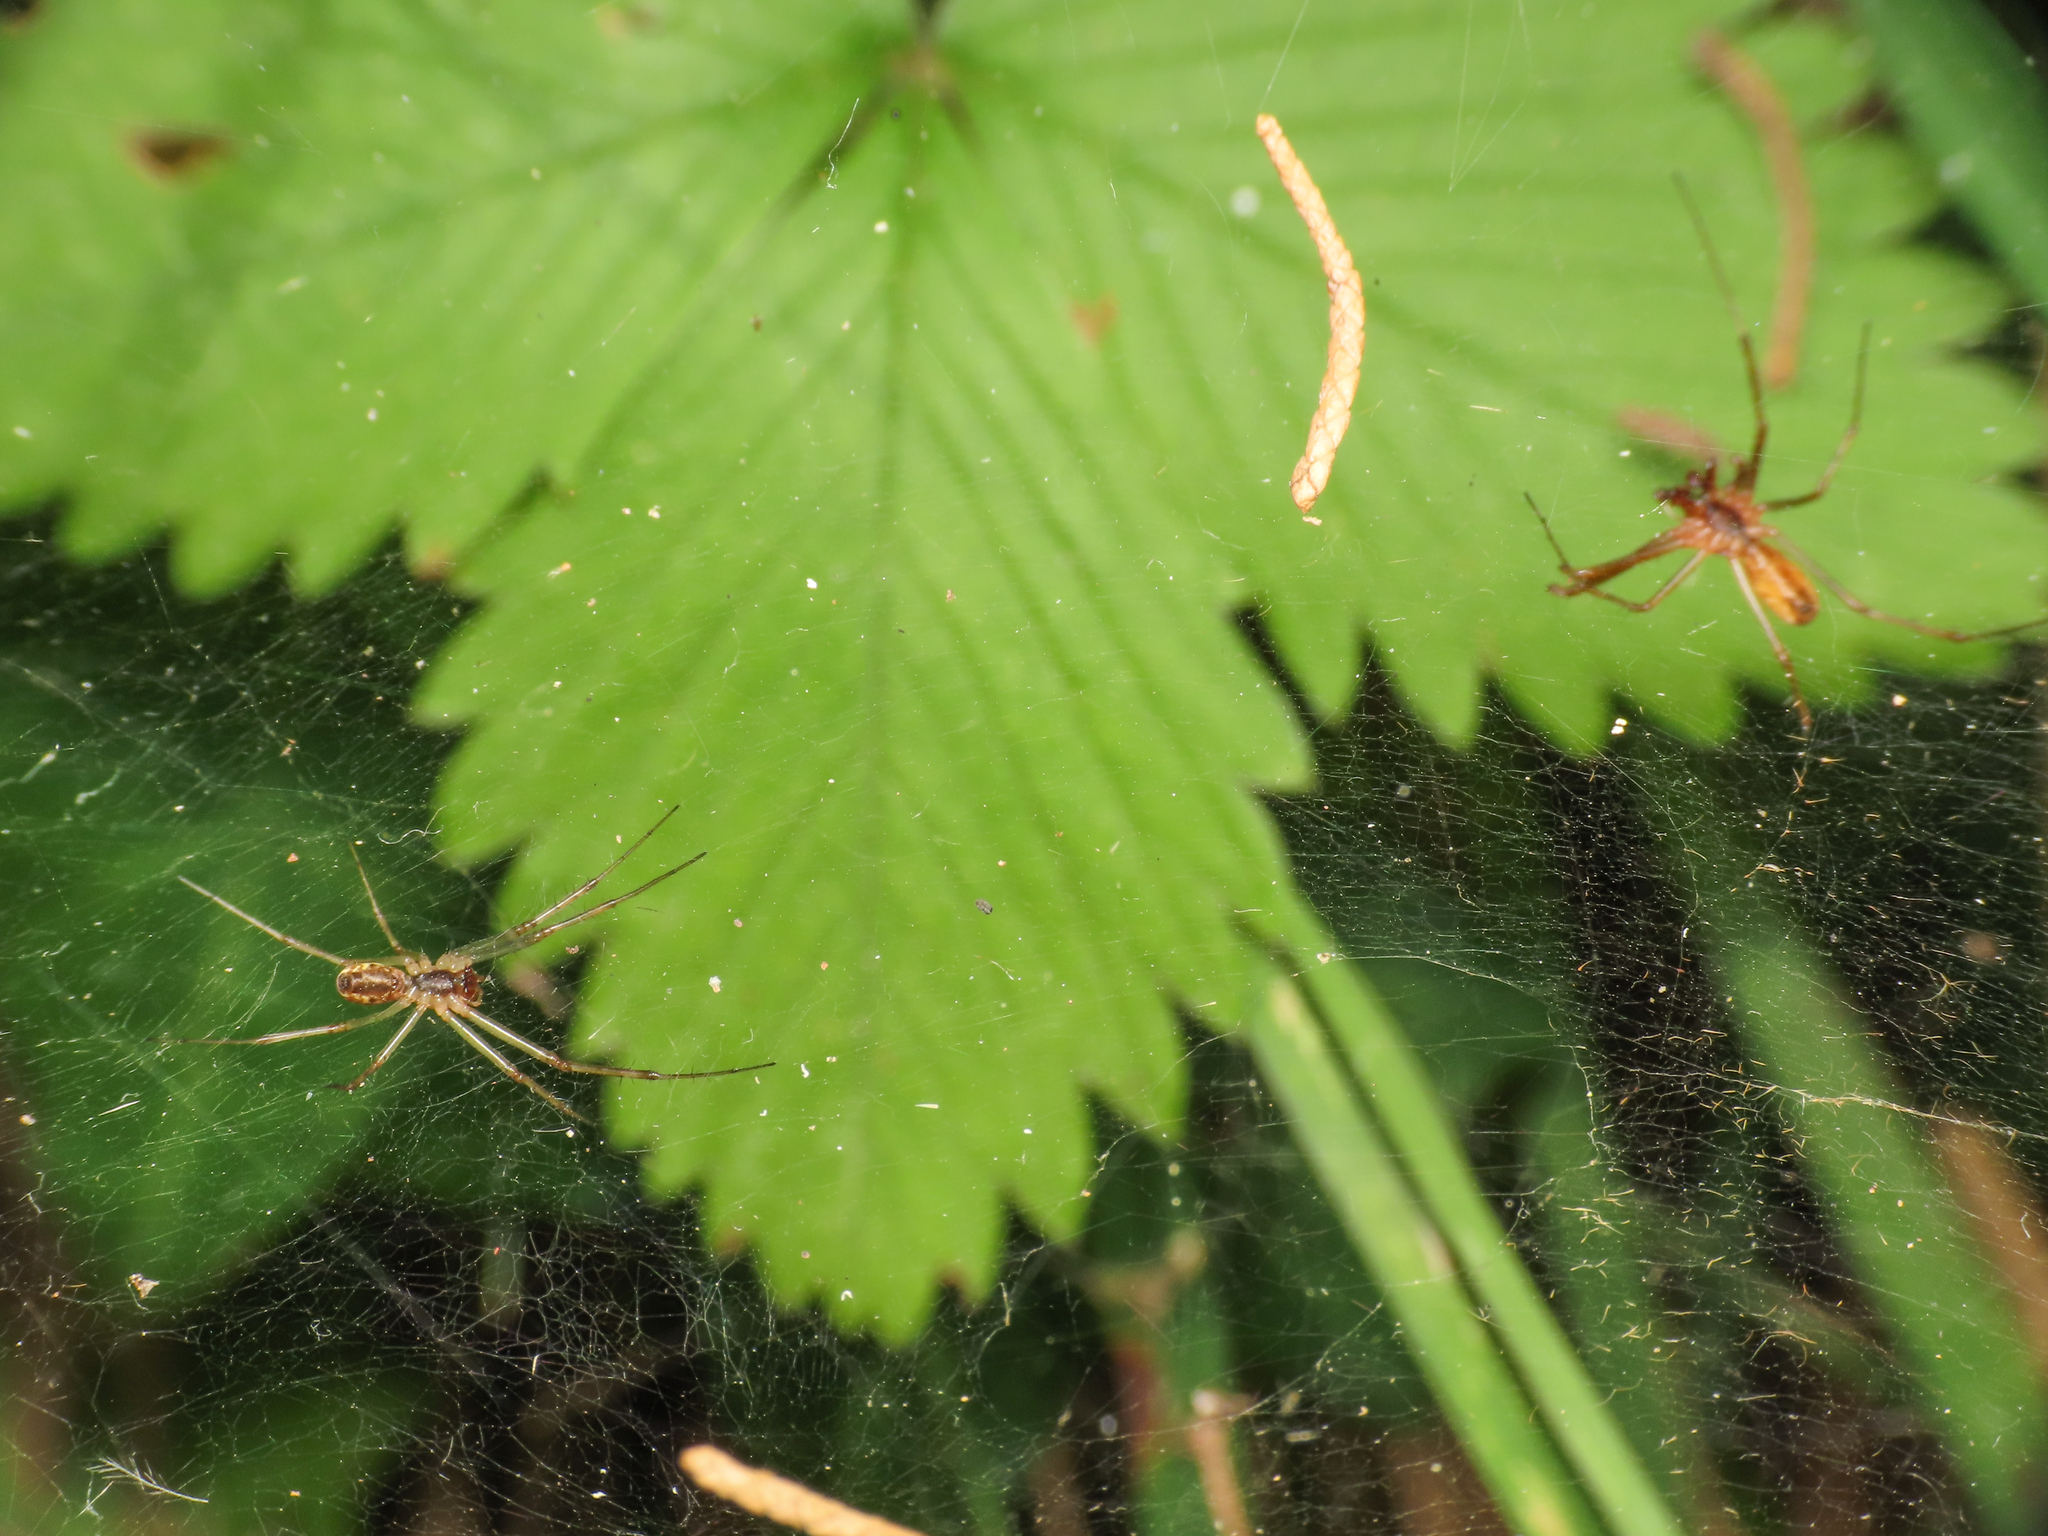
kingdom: Animalia
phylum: Arthropoda
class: Arachnida
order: Araneae
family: Linyphiidae
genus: Linyphia
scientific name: Linyphia triangularis
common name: Money spider
